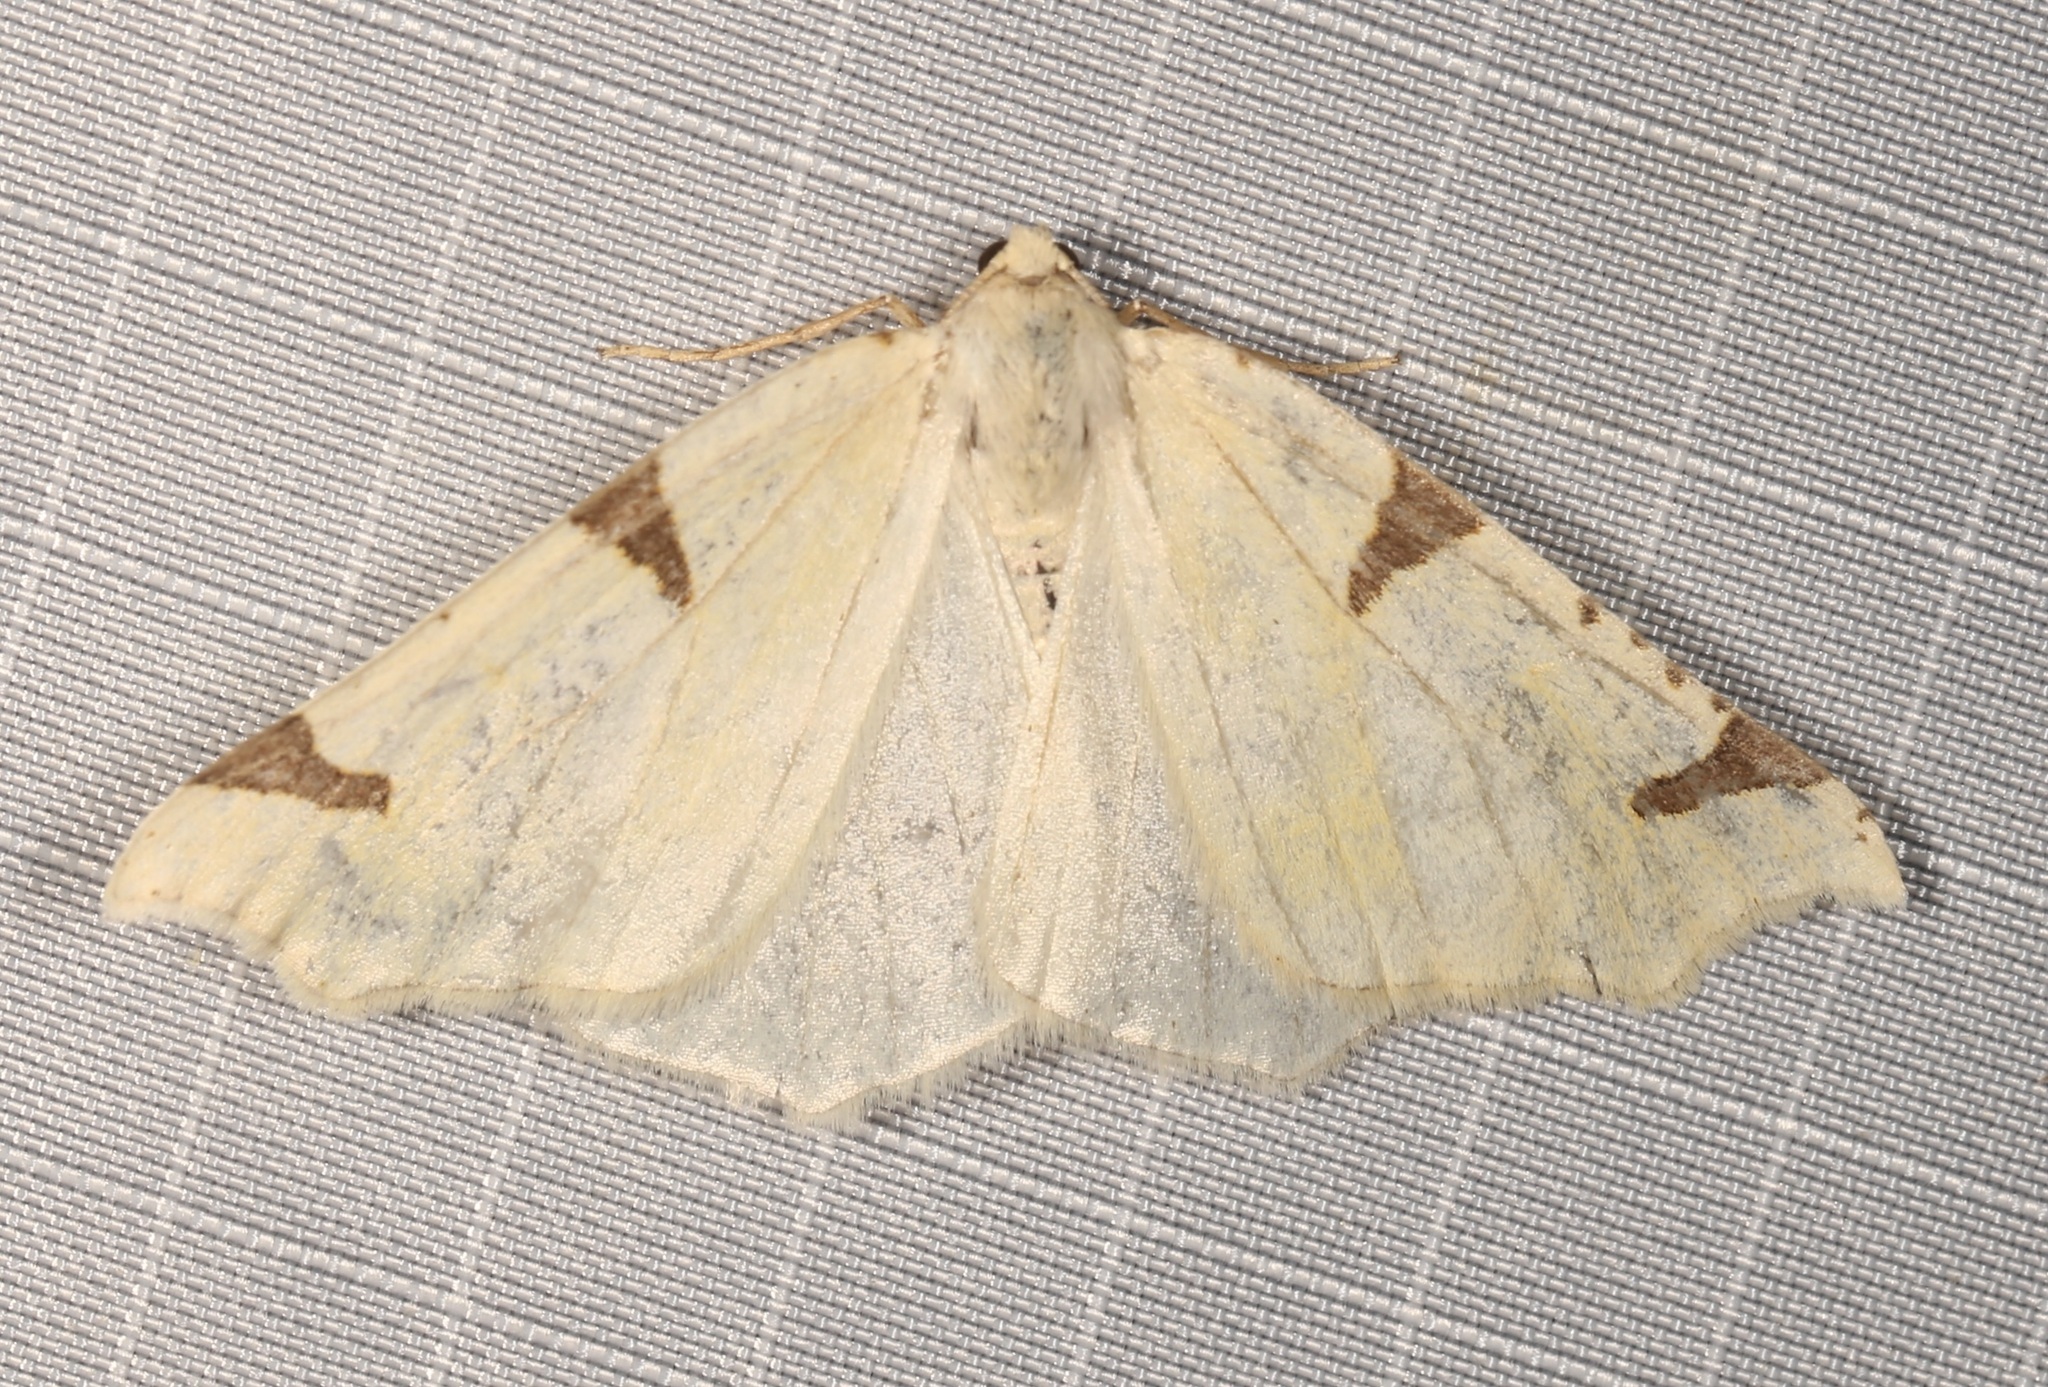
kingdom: Animalia
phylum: Arthropoda
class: Insecta
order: Lepidoptera
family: Geometridae
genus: Neoterpes
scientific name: Neoterpes trianguliferata
